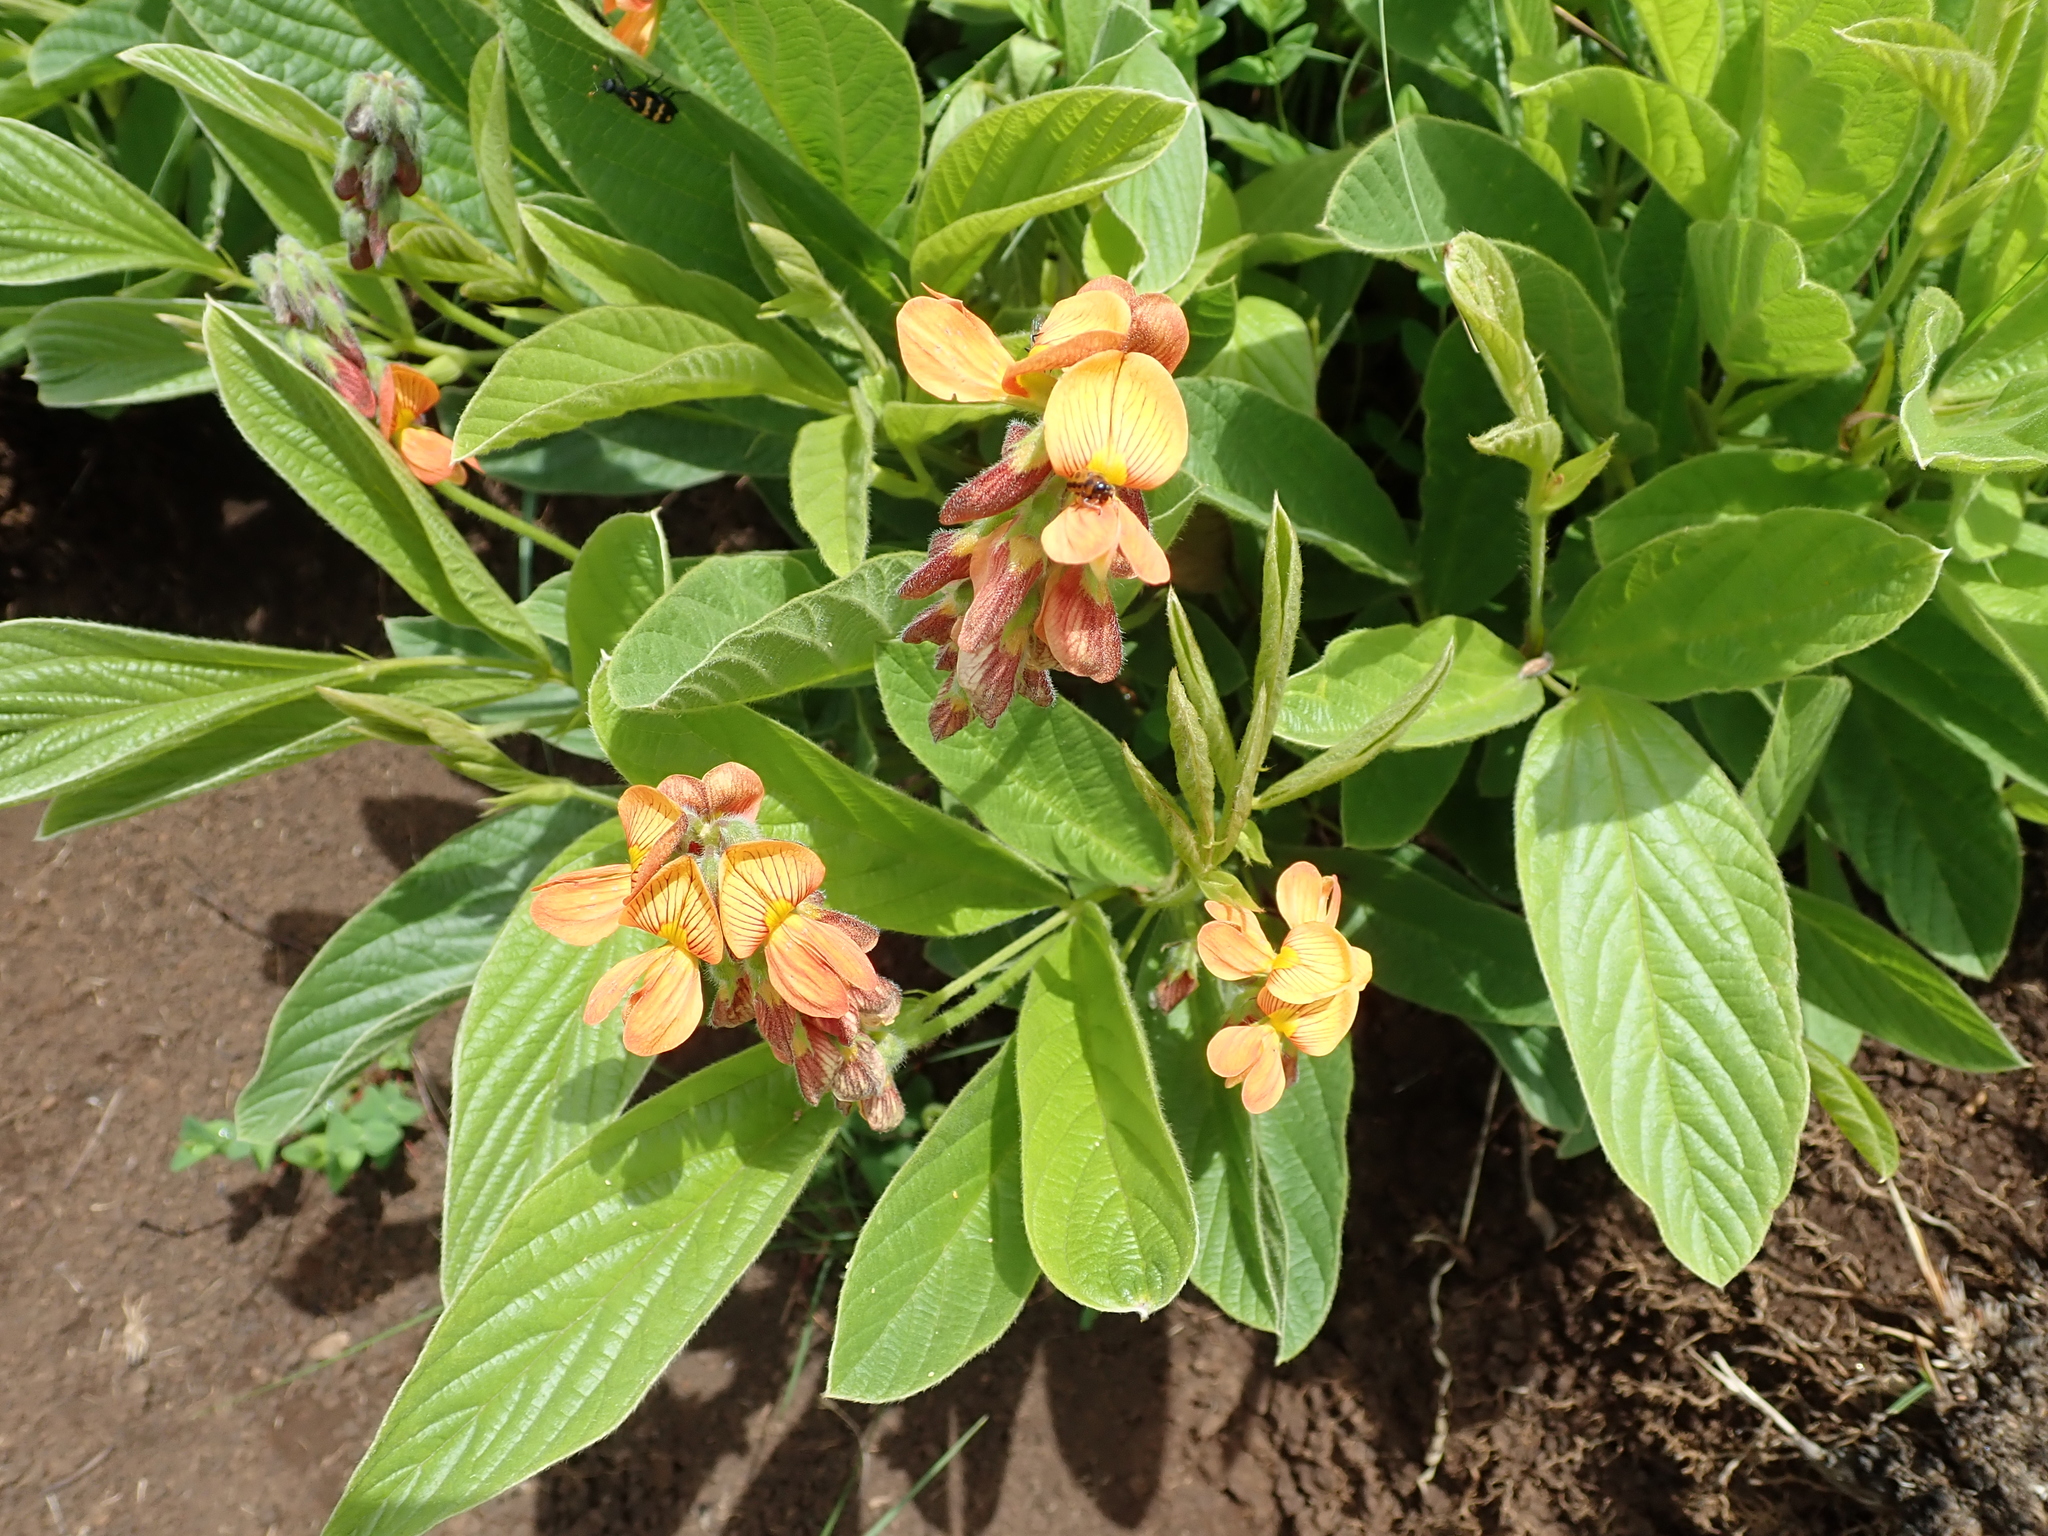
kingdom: Plantae
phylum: Tracheophyta
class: Magnoliopsida
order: Fabales
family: Fabaceae
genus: Eriosema
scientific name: Eriosema distinctum
